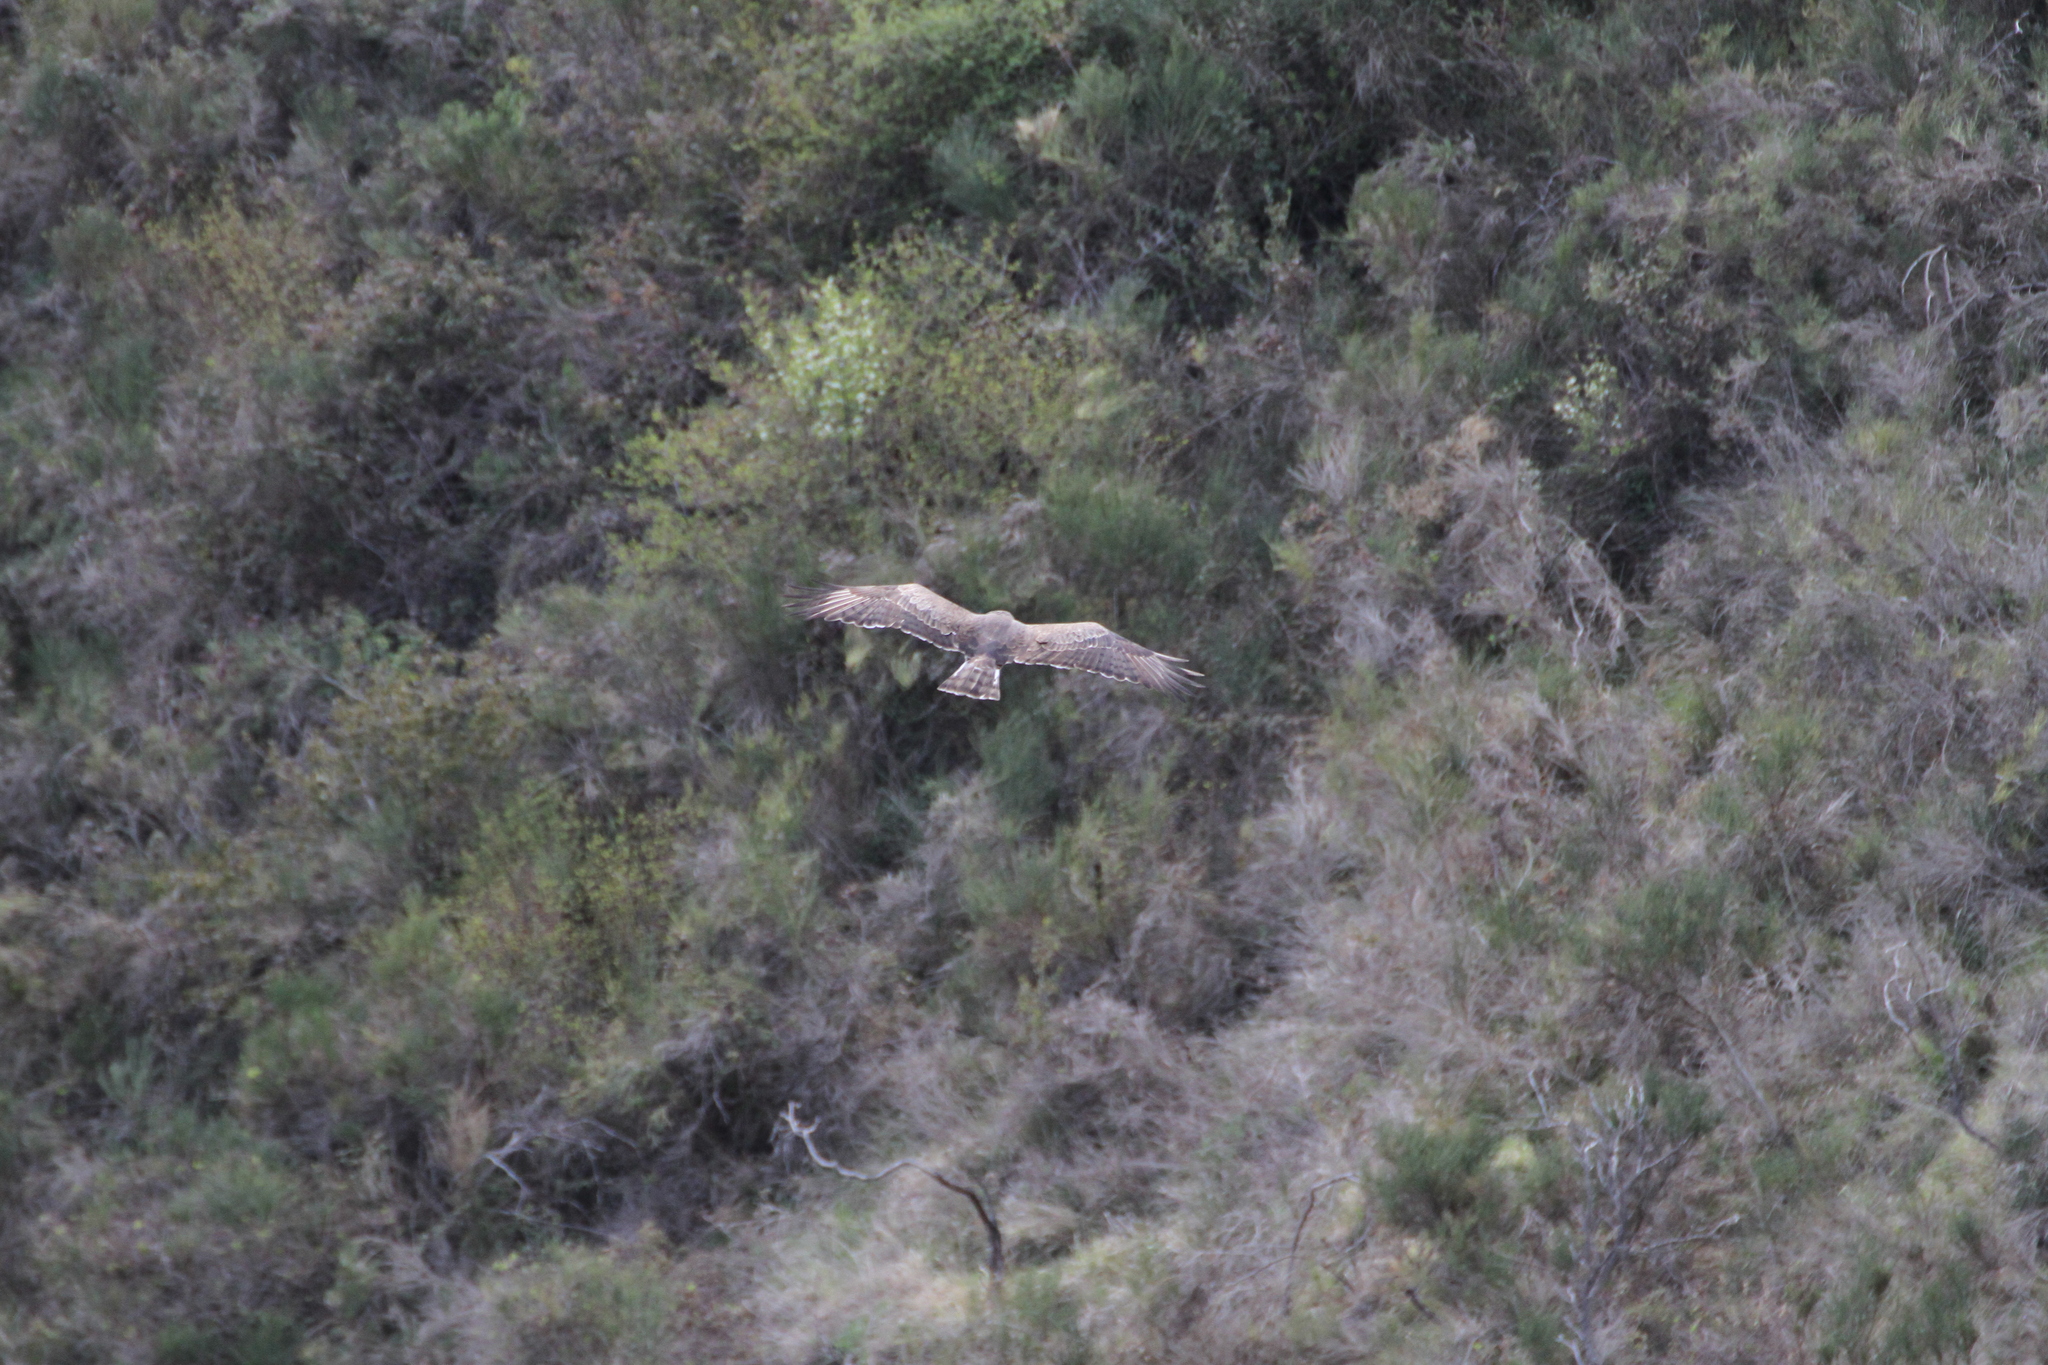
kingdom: Animalia
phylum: Chordata
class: Aves
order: Accipitriformes
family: Accipitridae
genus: Circaetus
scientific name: Circaetus gallicus
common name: Short-toed snake eagle
